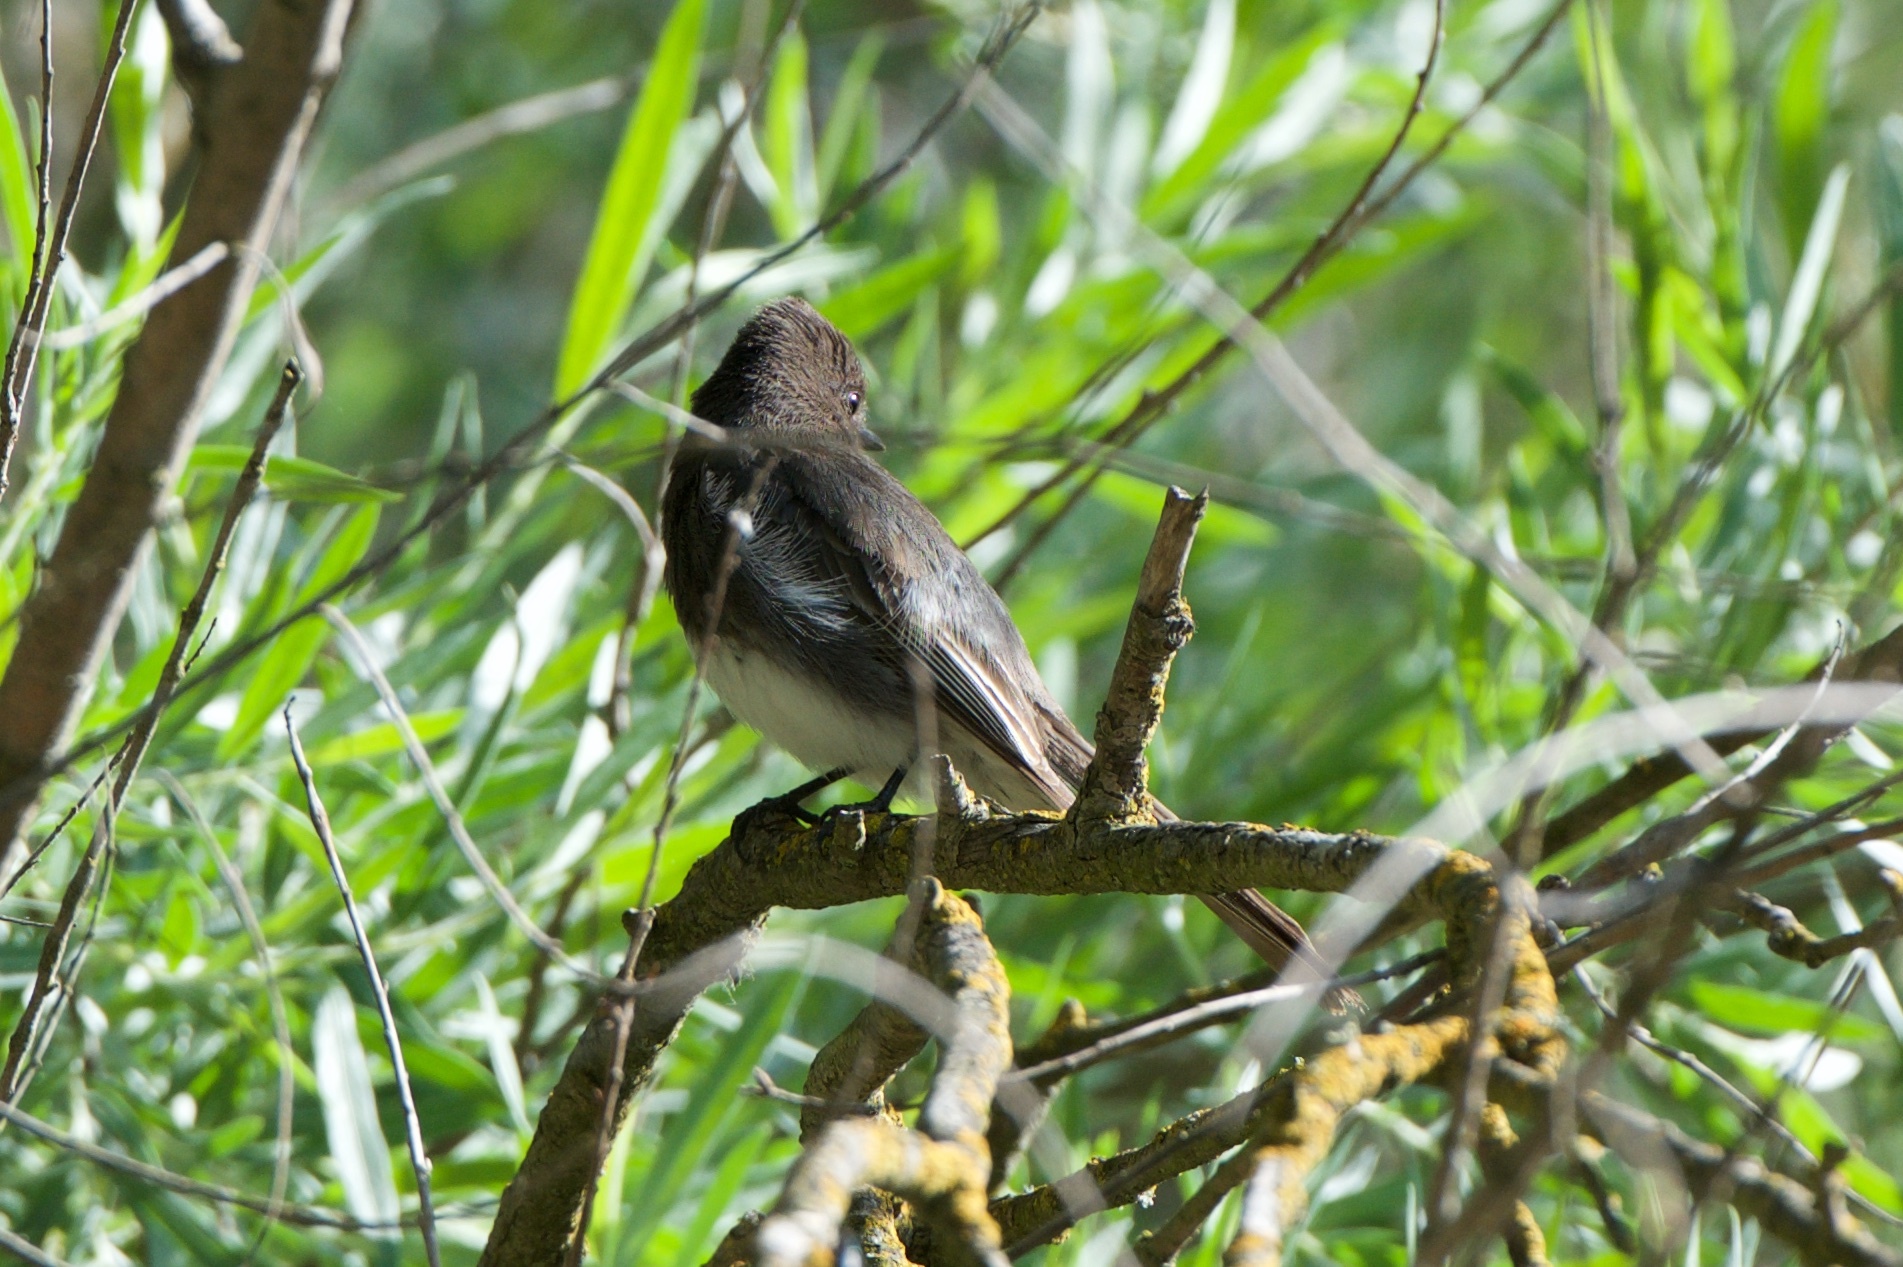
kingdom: Animalia
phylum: Chordata
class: Aves
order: Passeriformes
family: Tyrannidae
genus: Sayornis
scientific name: Sayornis nigricans
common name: Black phoebe
